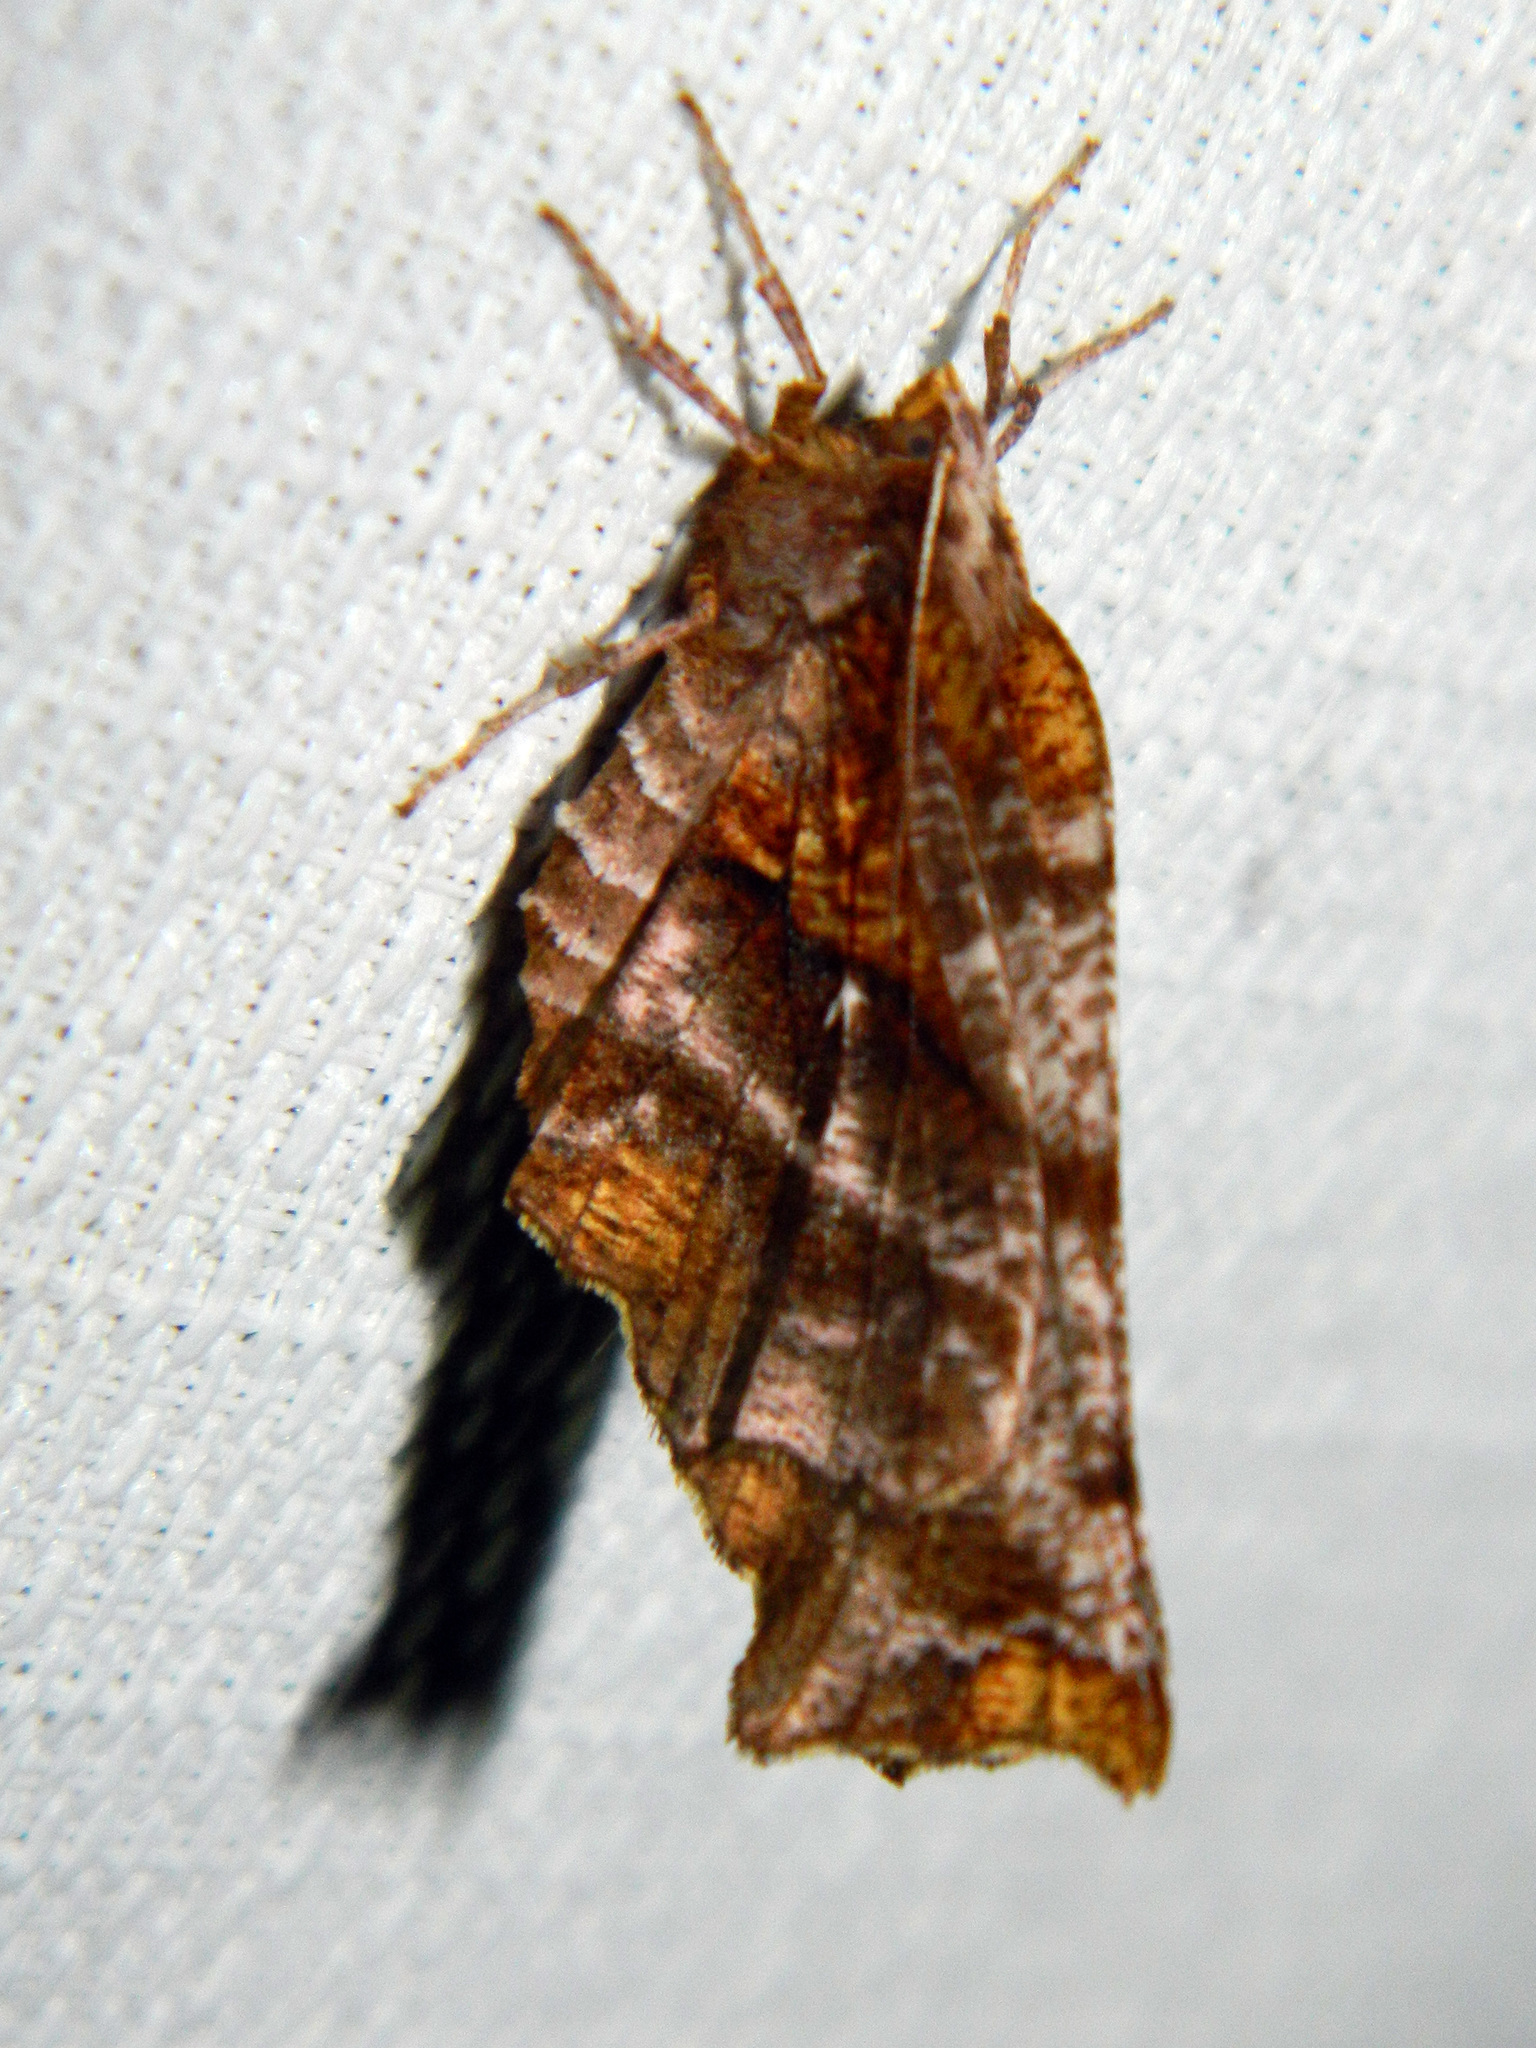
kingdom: Animalia
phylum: Arthropoda
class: Insecta
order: Lepidoptera
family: Geometridae
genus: Selenia
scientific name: Selenia alciphearia
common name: Brown-tipped thorn
